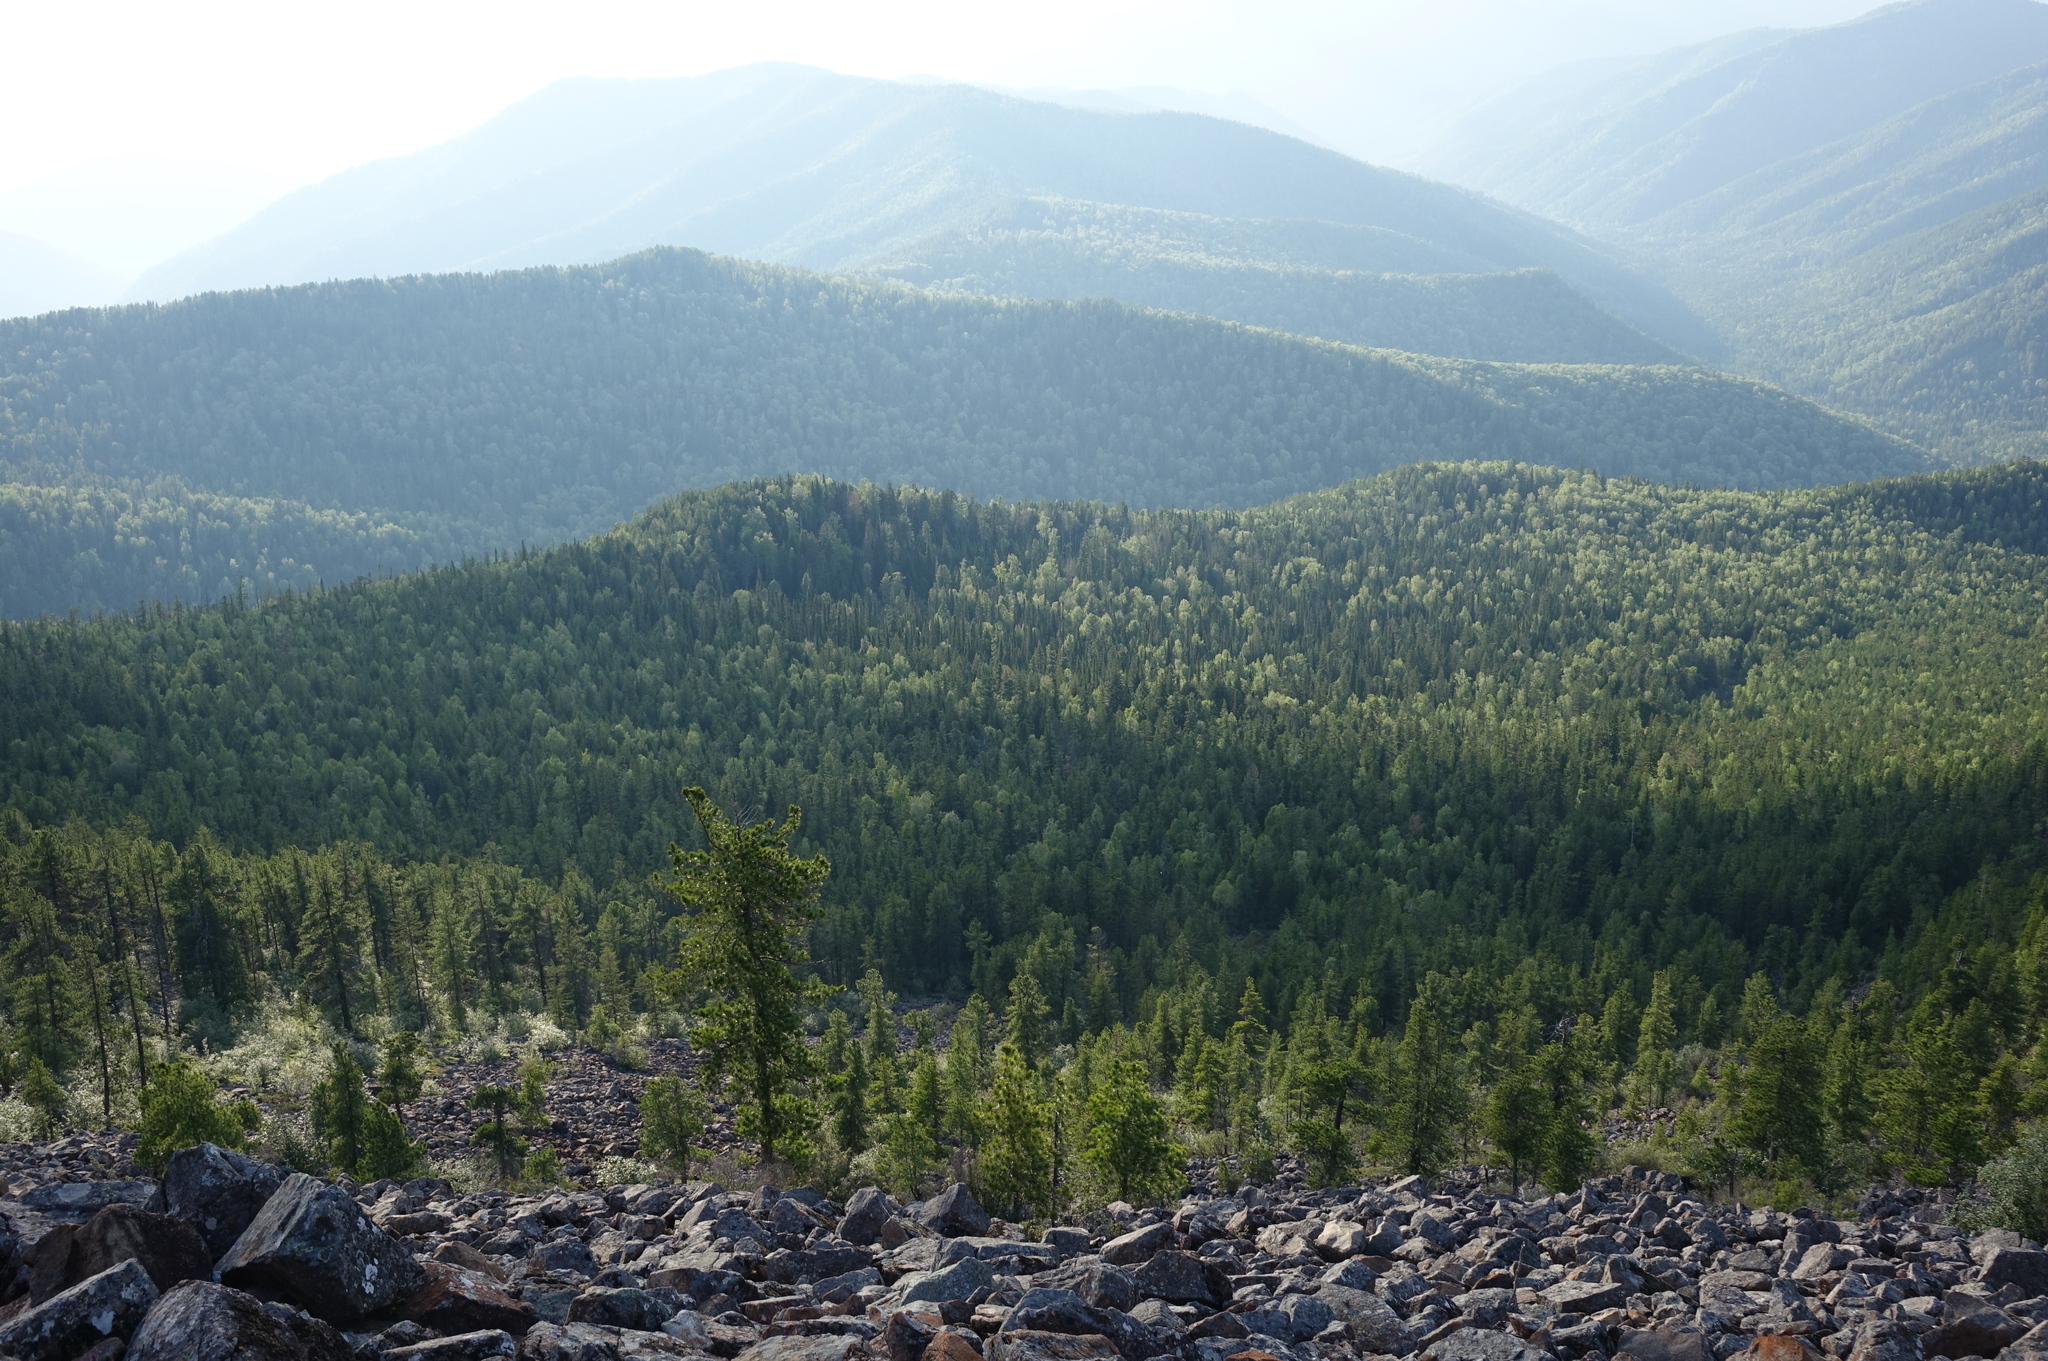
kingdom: Plantae
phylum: Tracheophyta
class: Pinopsida
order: Pinales
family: Pinaceae
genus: Pinus
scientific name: Pinus sibirica
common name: Siberian pine
